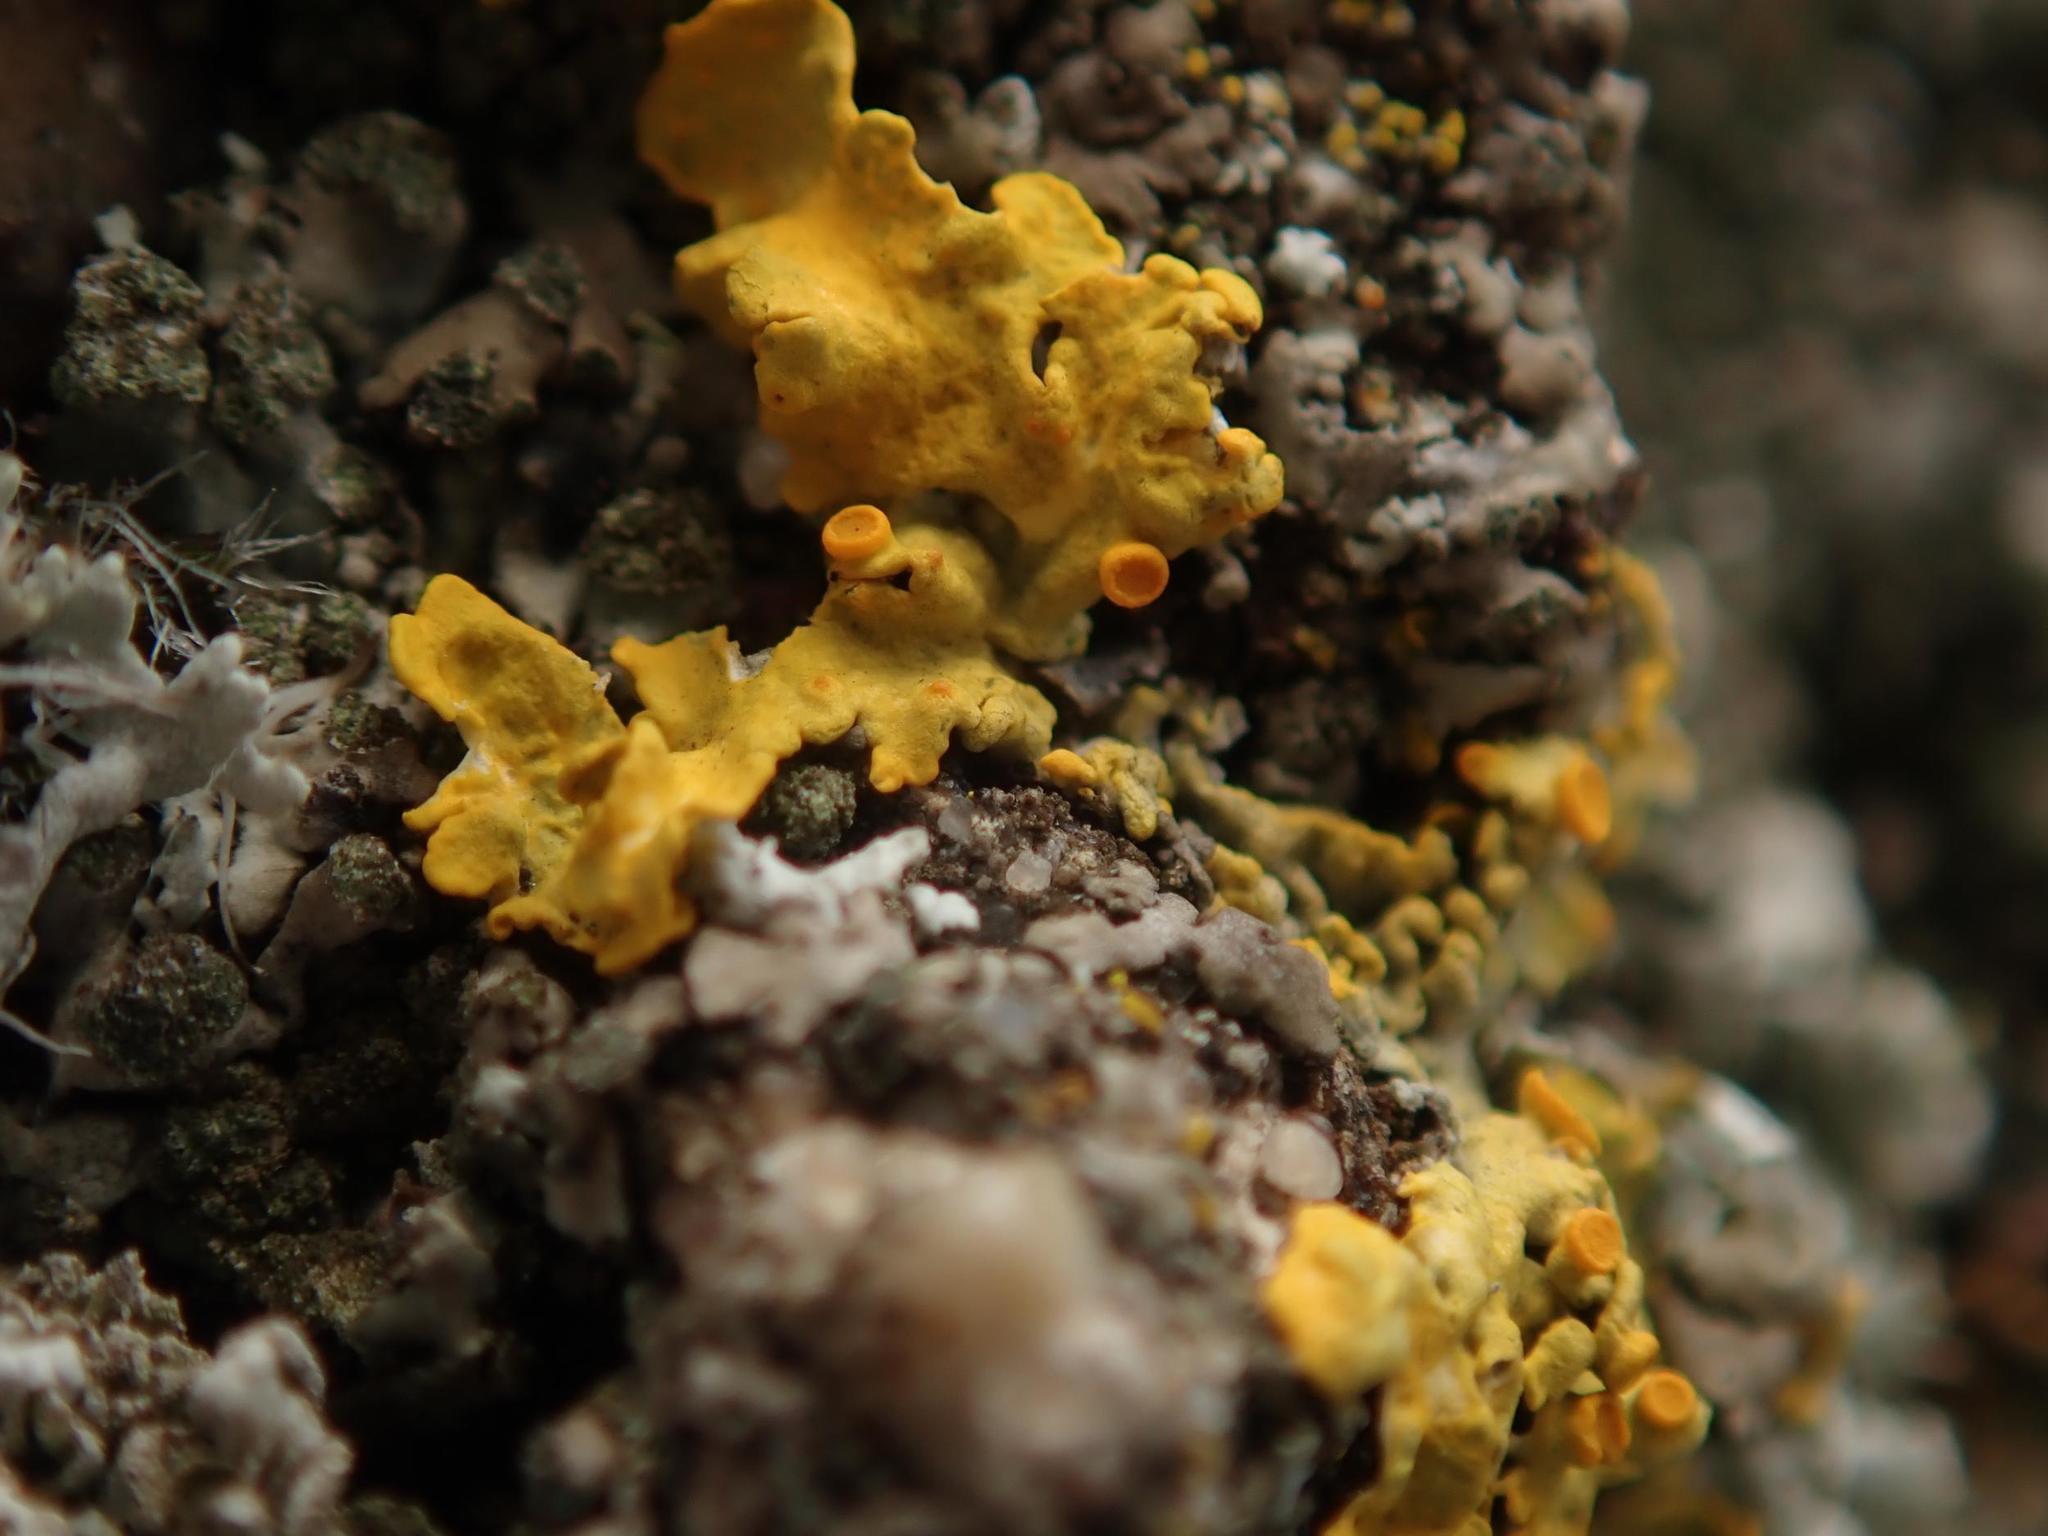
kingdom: Fungi
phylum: Ascomycota
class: Lecanoromycetes
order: Teloschistales
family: Teloschistaceae
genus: Xanthoria
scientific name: Xanthoria parietina
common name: Common orange lichen
